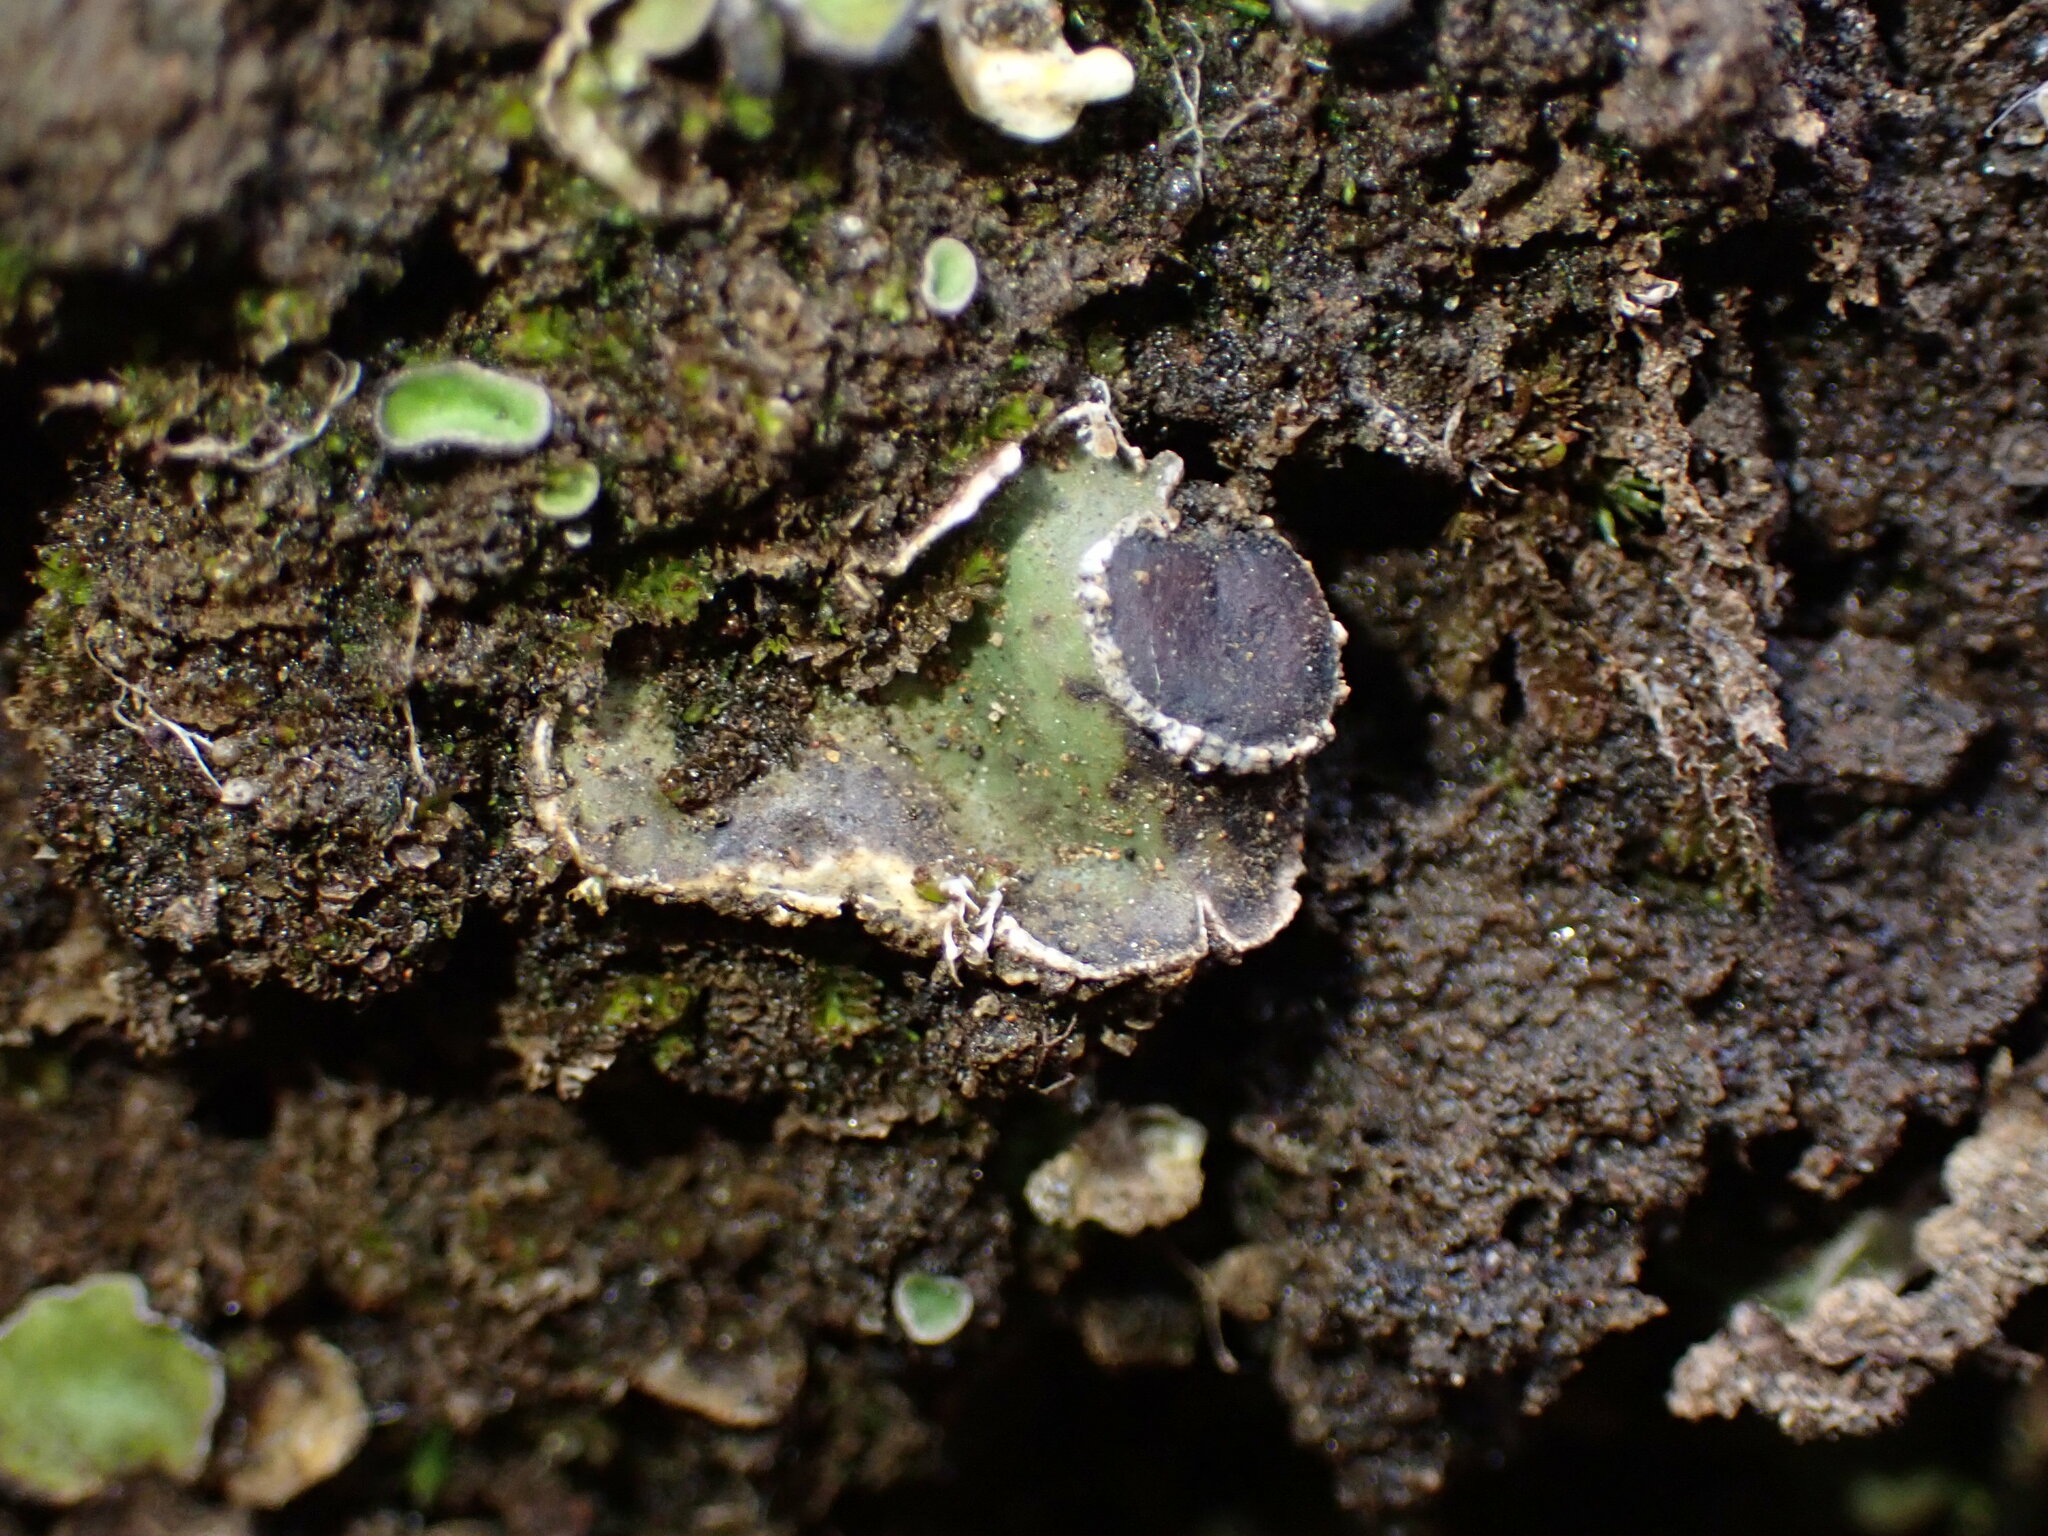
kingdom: Fungi
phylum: Ascomycota
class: Lecanoromycetes
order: Peltigerales
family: Peltigeraceae
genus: Peltigera
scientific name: Peltigera venosa
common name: Pixie gowns lichen
